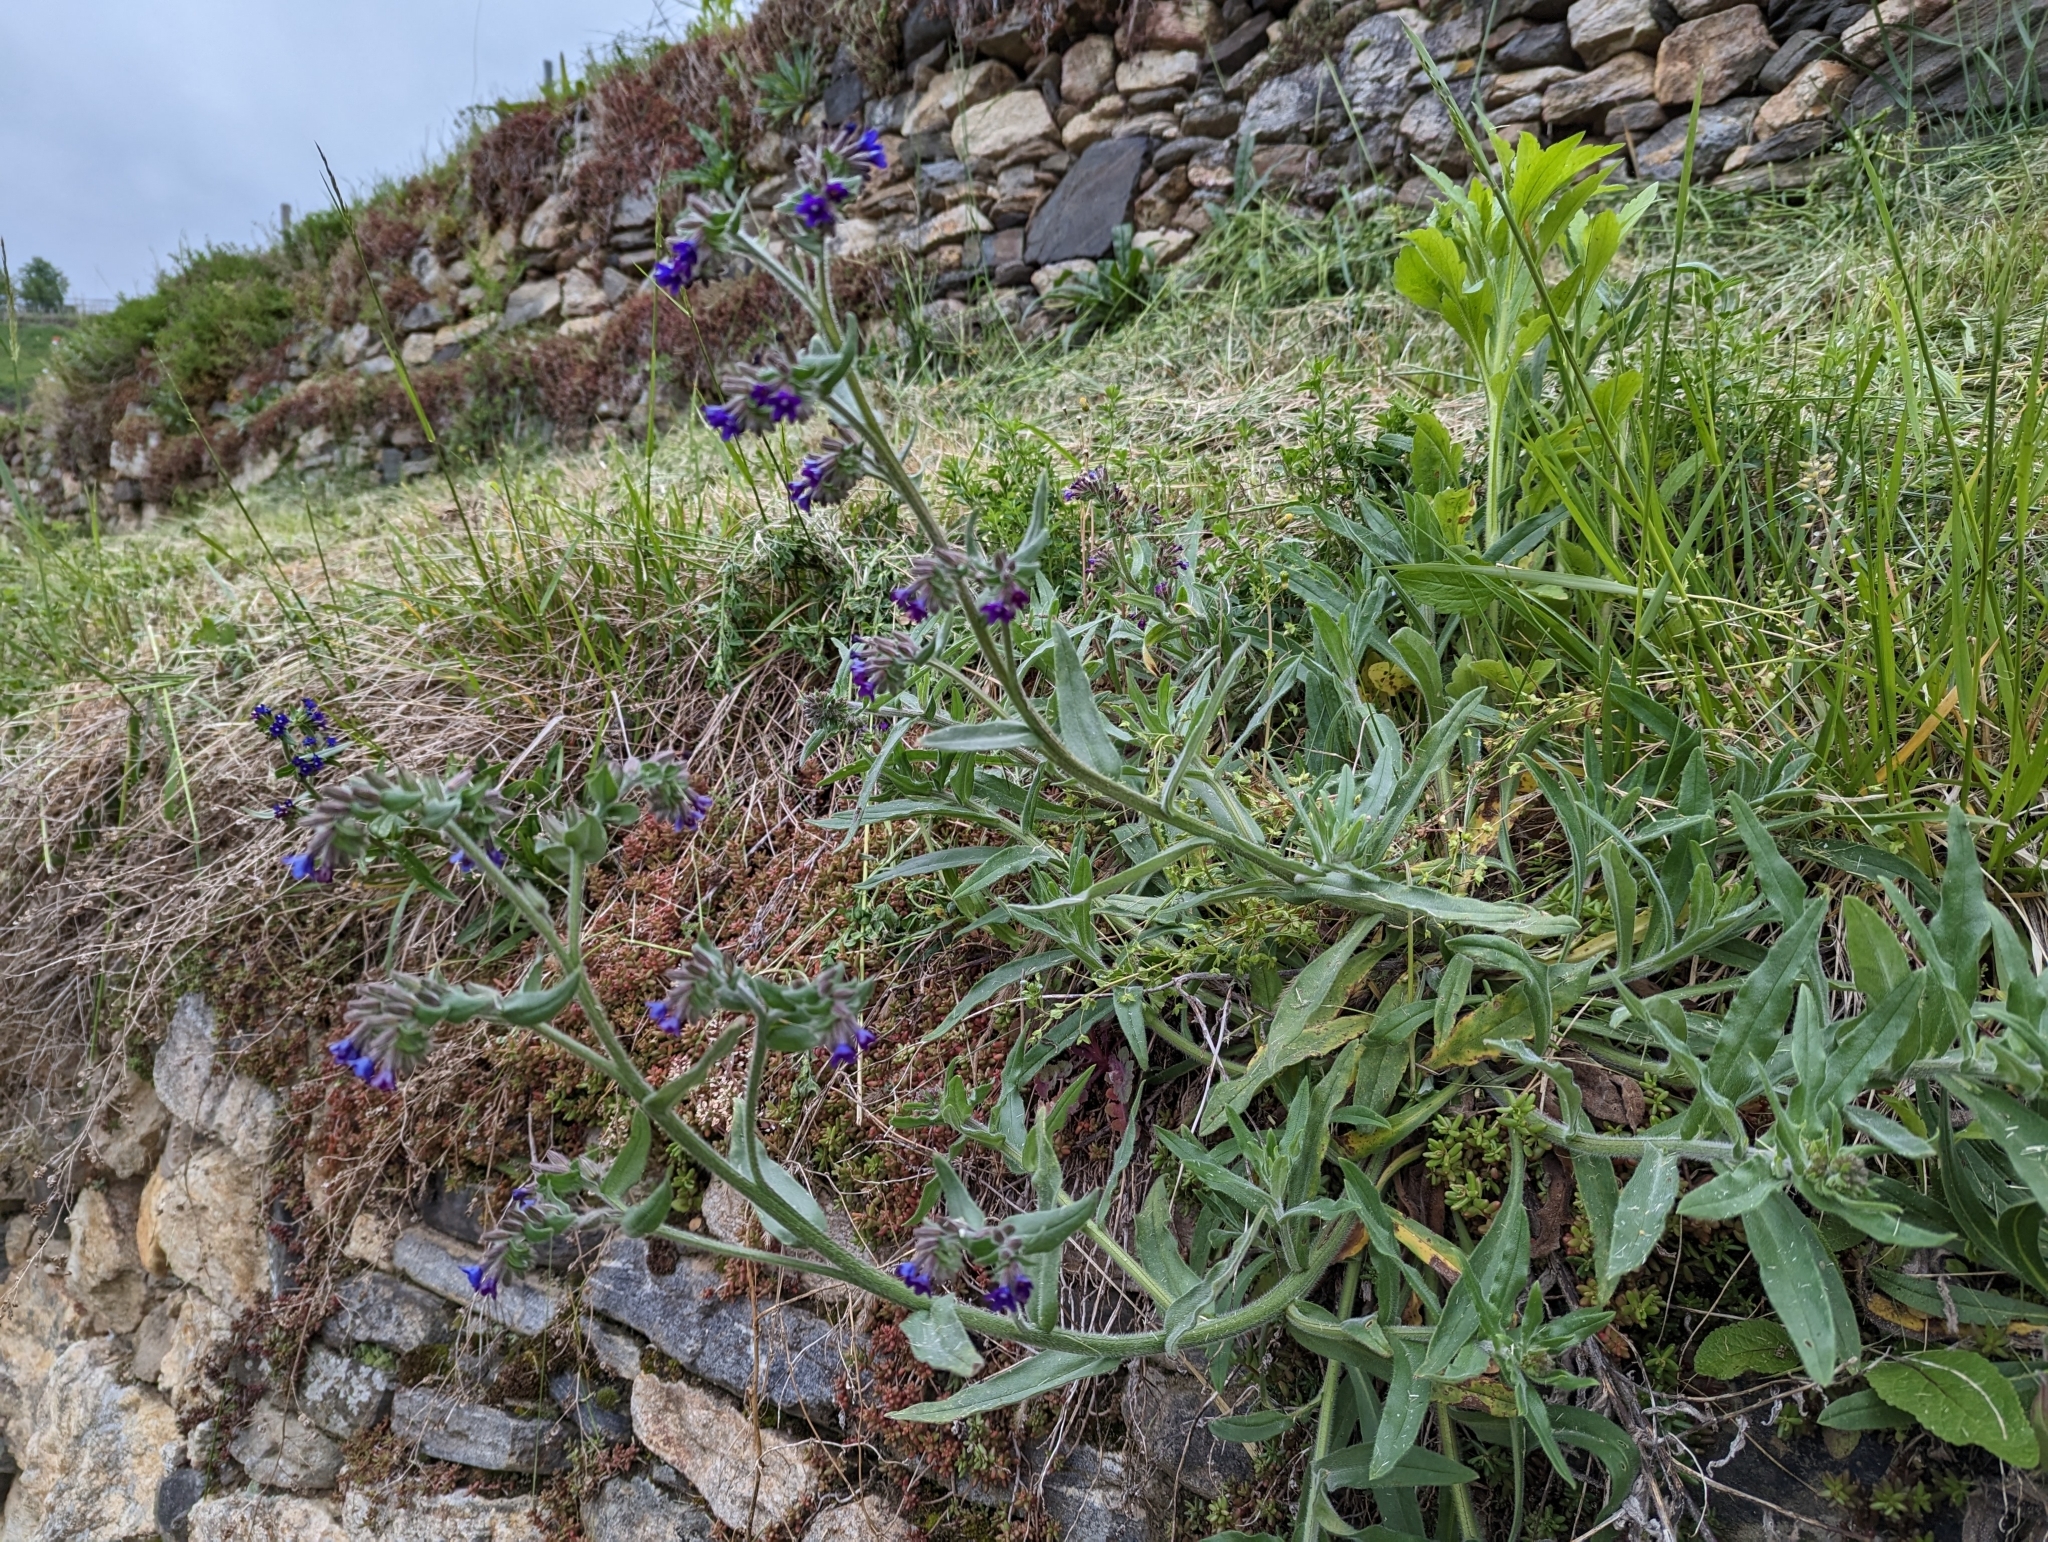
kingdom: Plantae
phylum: Tracheophyta
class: Magnoliopsida
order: Boraginales
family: Boraginaceae
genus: Anchusa
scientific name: Anchusa officinalis
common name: Alkanet
